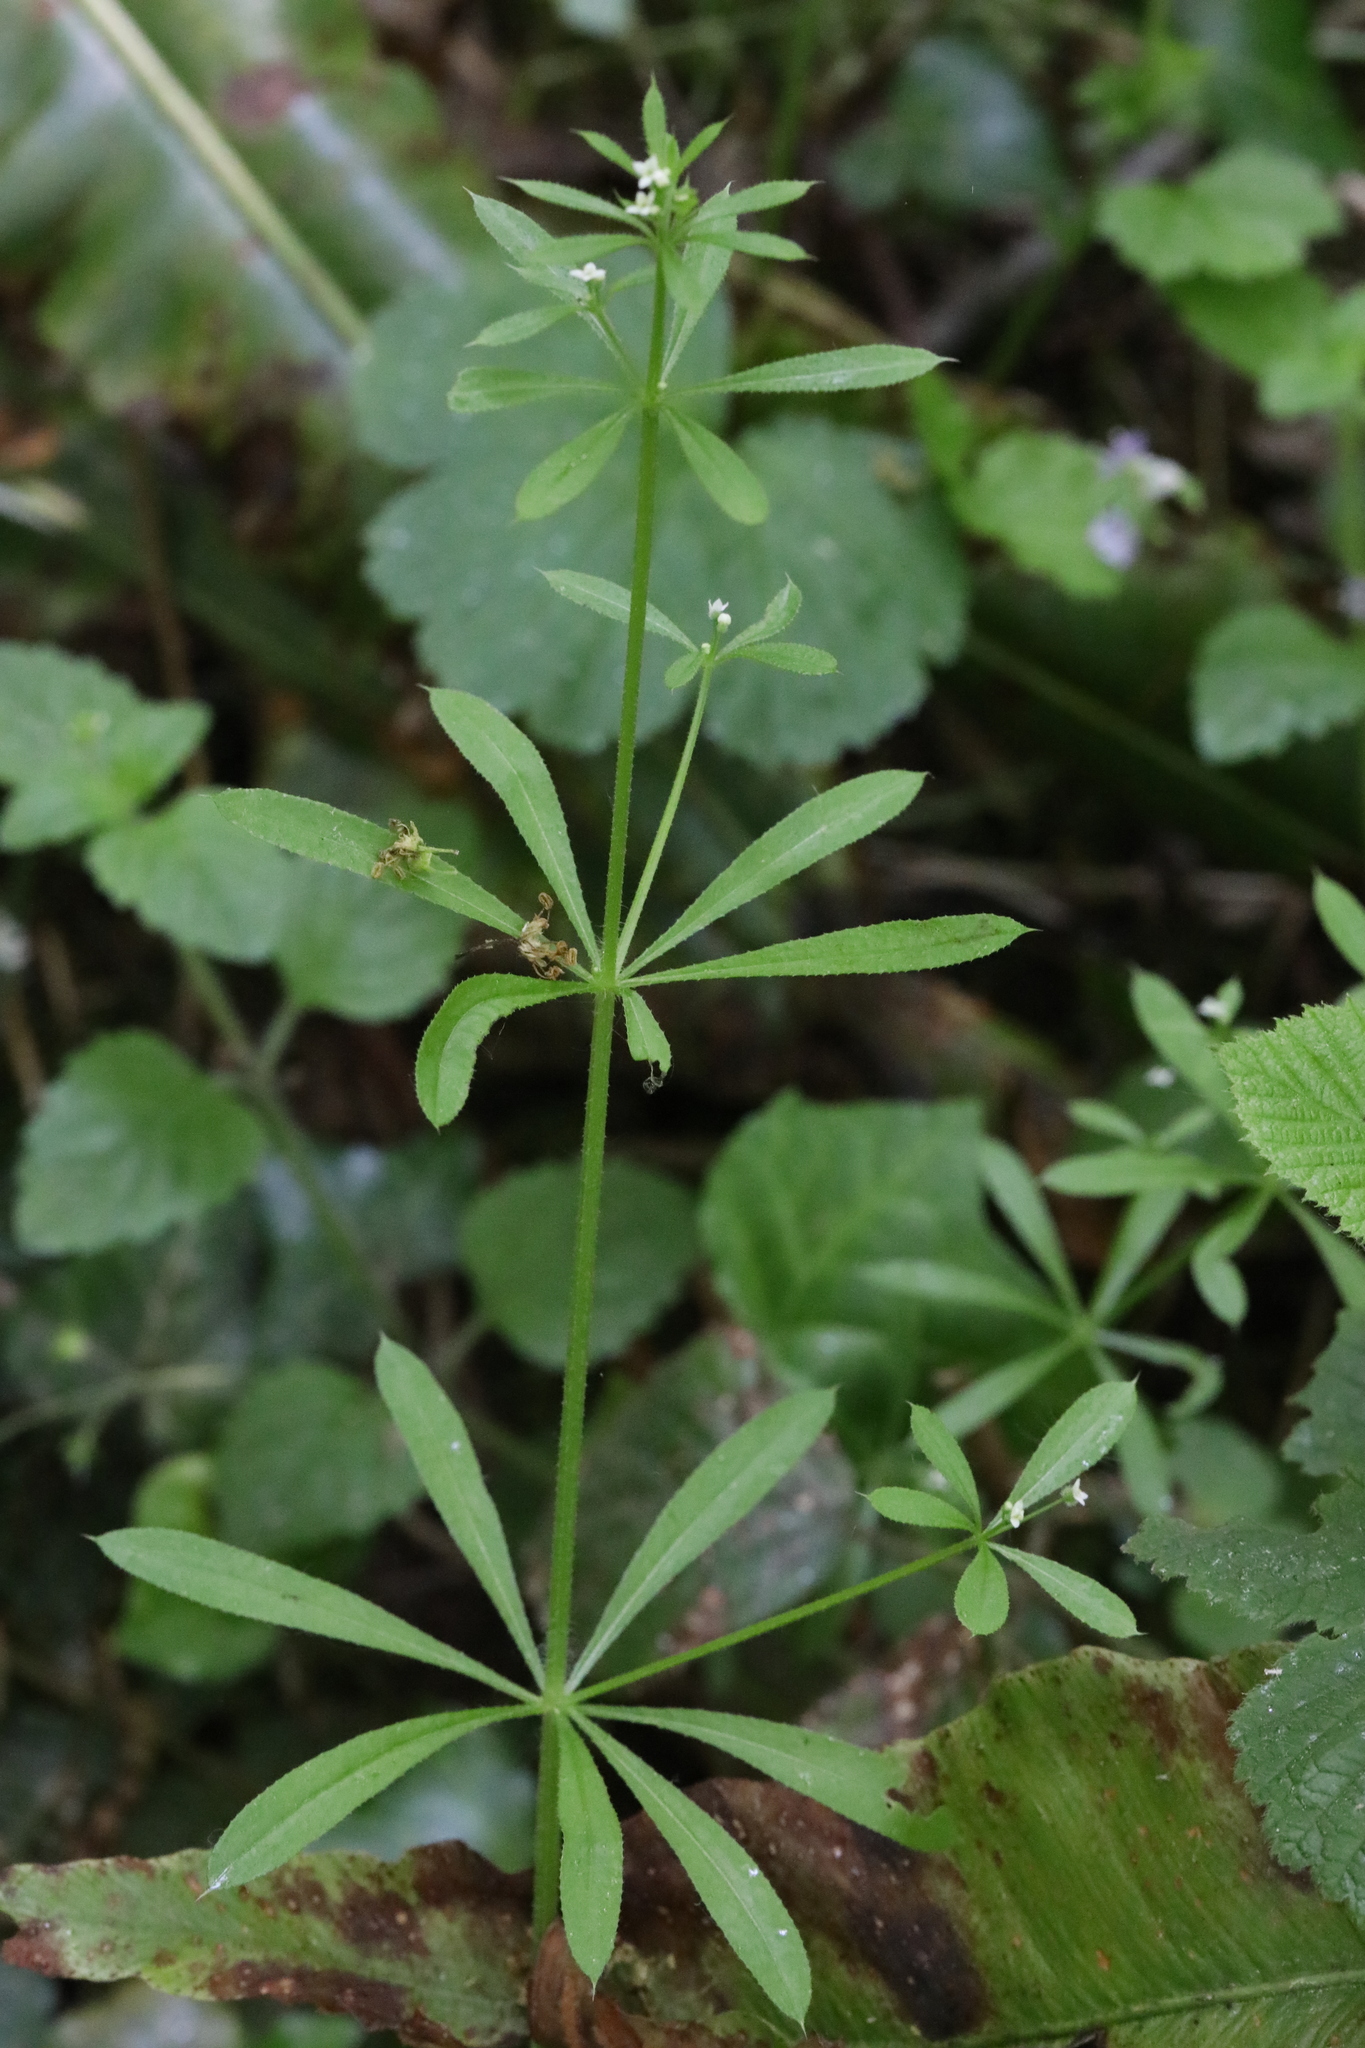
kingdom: Plantae
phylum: Tracheophyta
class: Magnoliopsida
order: Gentianales
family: Rubiaceae
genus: Galium
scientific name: Galium aparine
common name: Cleavers
